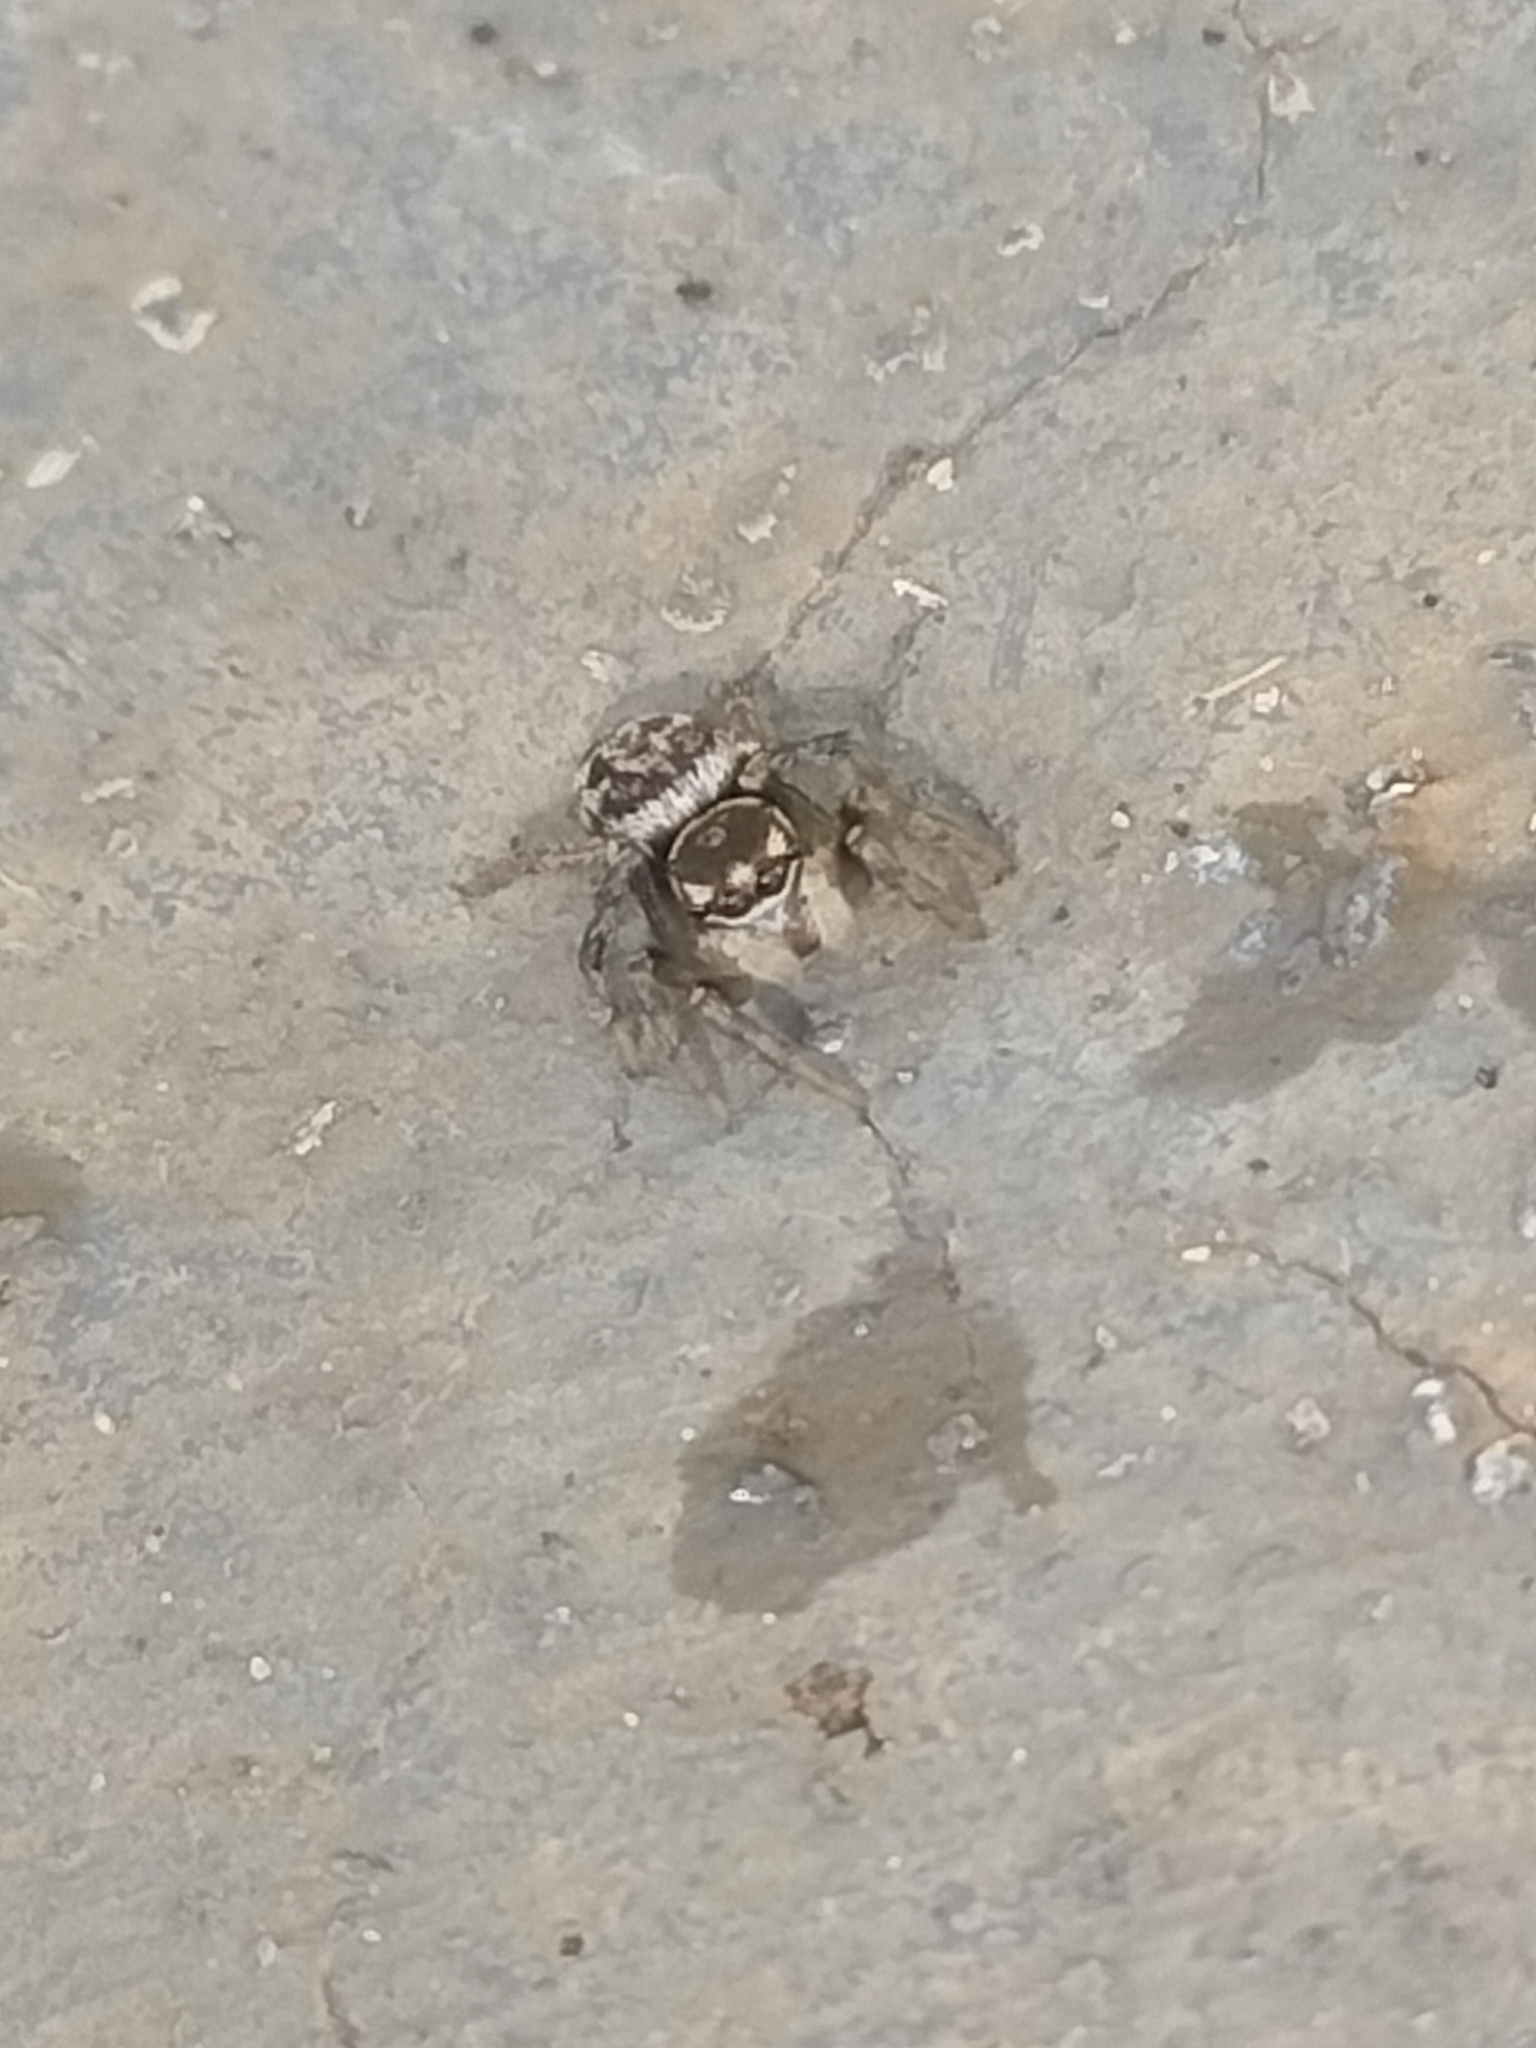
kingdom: Animalia
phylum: Arthropoda
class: Arachnida
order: Araneae
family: Salticidae
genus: Maratus
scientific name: Maratus griseus
